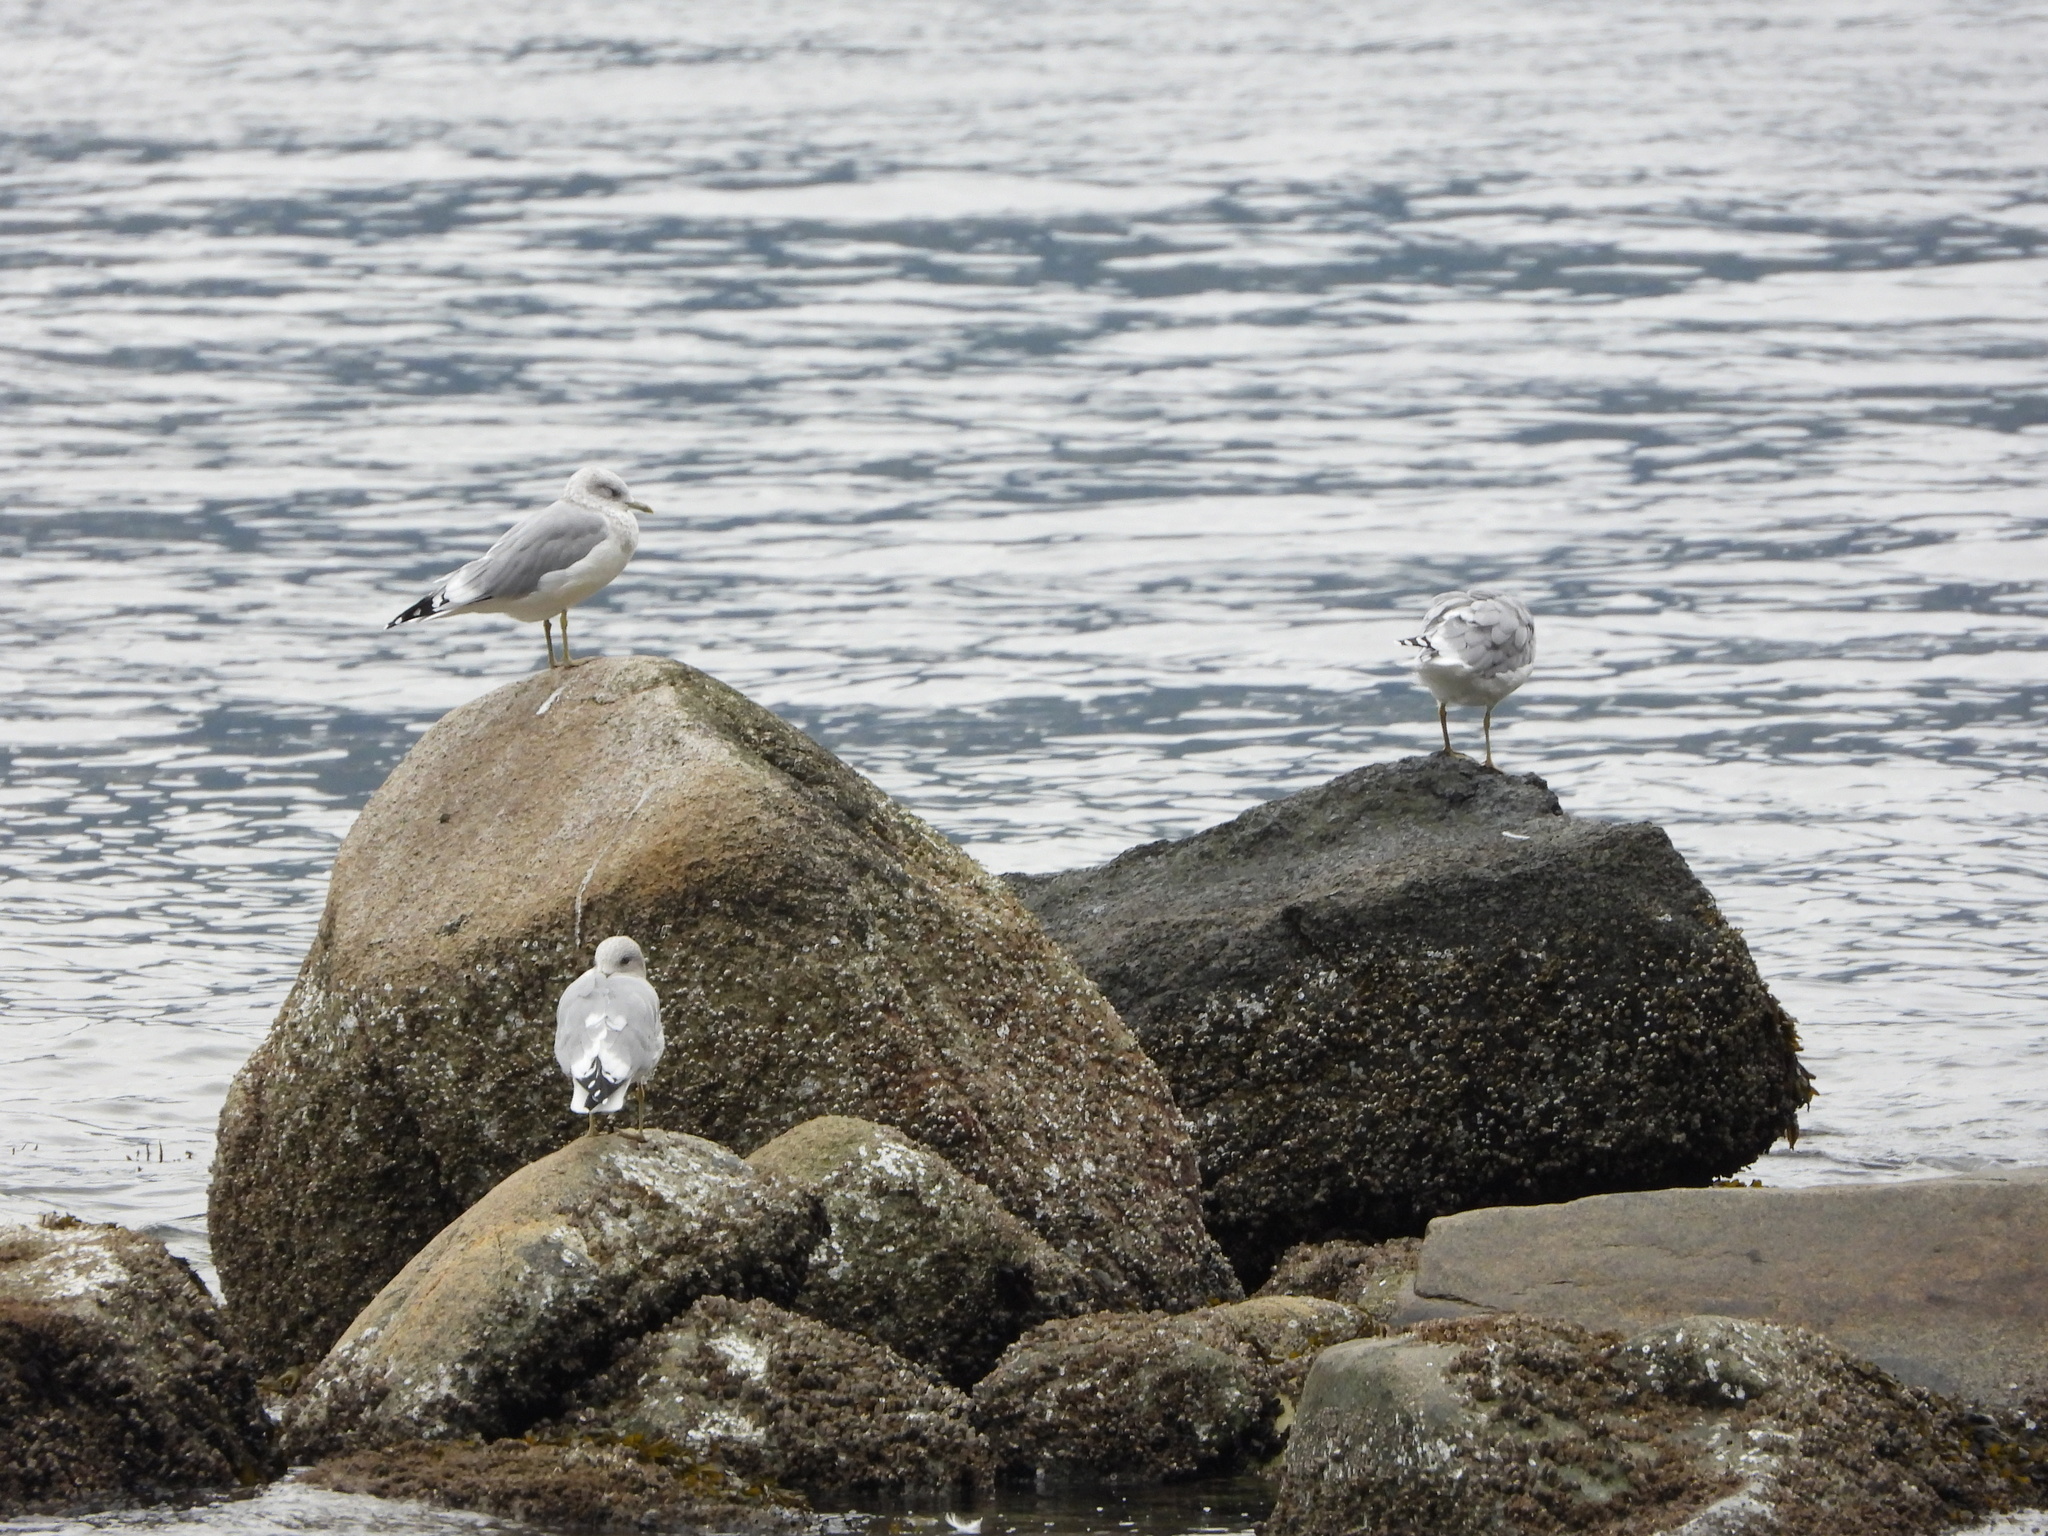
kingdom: Animalia
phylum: Chordata
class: Aves
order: Charadriiformes
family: Laridae
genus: Larus
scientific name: Larus brachyrhynchus
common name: Short-billed gull
